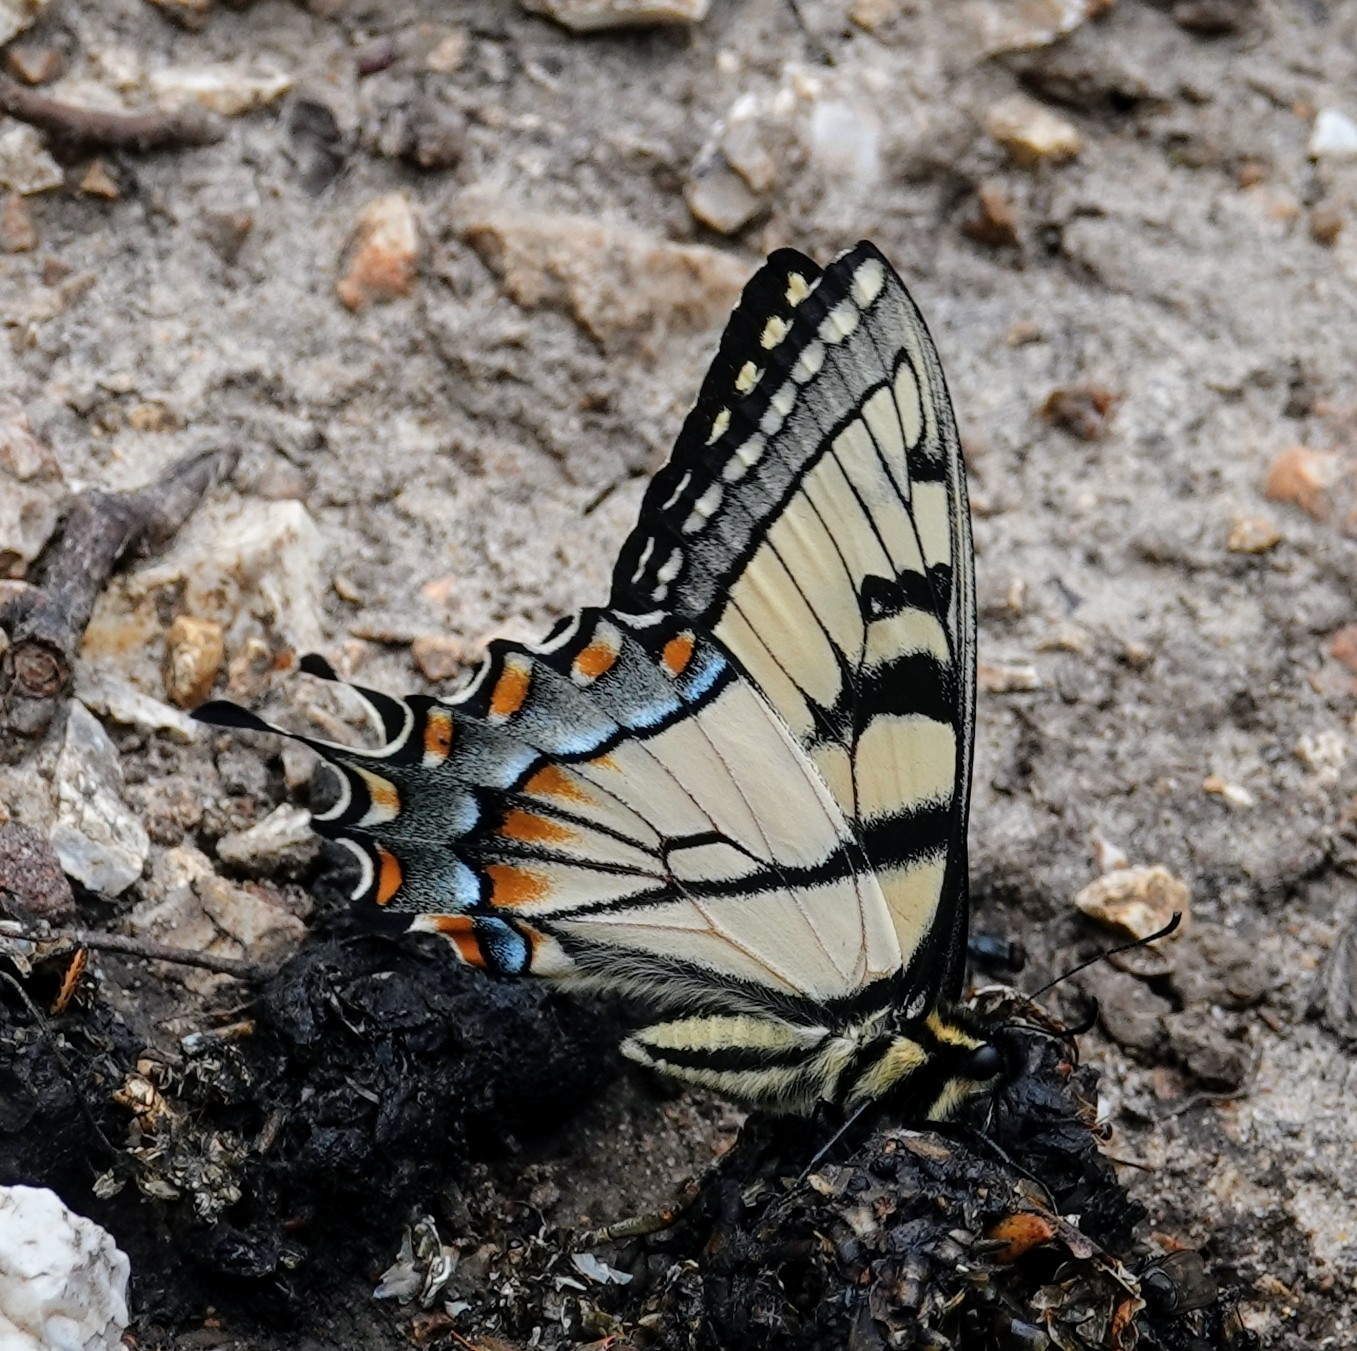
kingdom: Animalia
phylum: Arthropoda
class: Insecta
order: Lepidoptera
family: Papilionidae
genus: Papilio
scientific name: Papilio glaucus
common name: Tiger swallowtail
